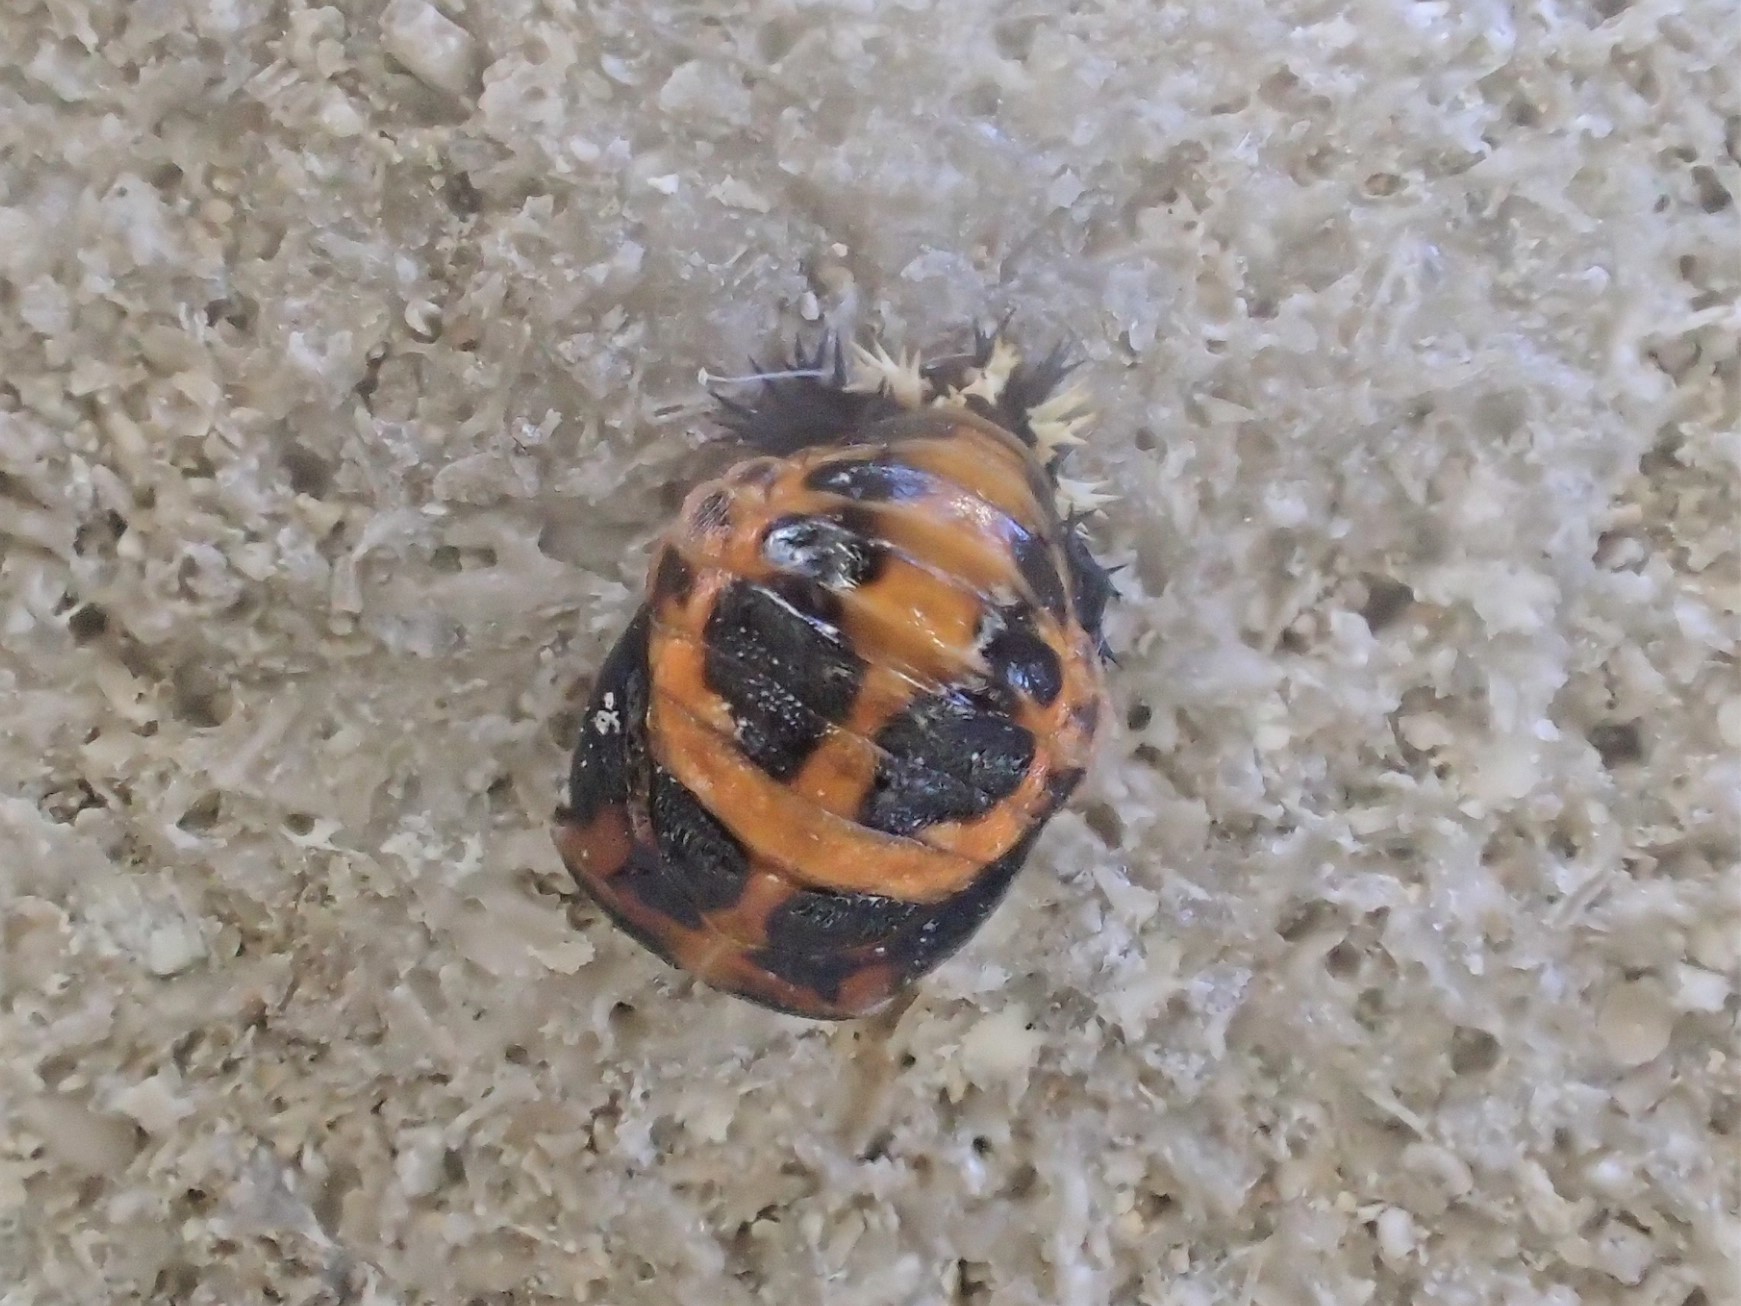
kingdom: Animalia
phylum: Arthropoda
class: Insecta
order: Coleoptera
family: Coccinellidae
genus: Harmonia
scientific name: Harmonia axyridis
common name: Harlequin ladybird
